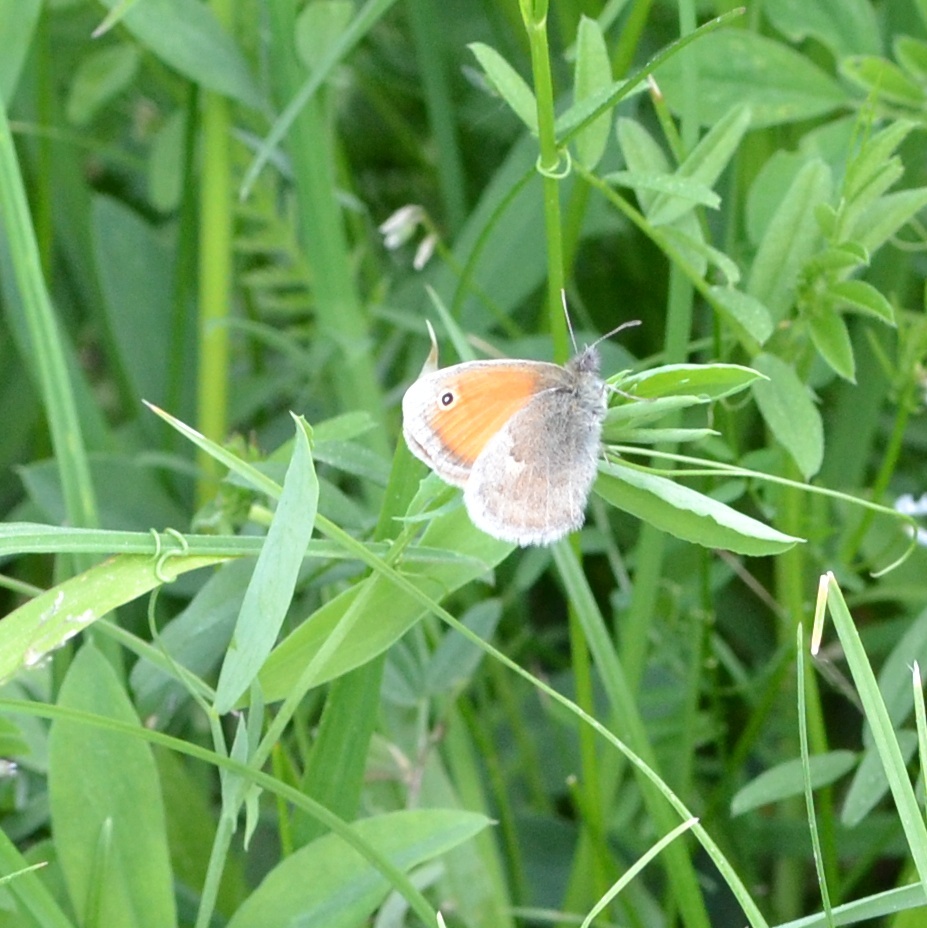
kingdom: Animalia
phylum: Arthropoda
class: Insecta
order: Lepidoptera
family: Nymphalidae
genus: Coenonympha
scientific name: Coenonympha pamphilus
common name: Small heath
